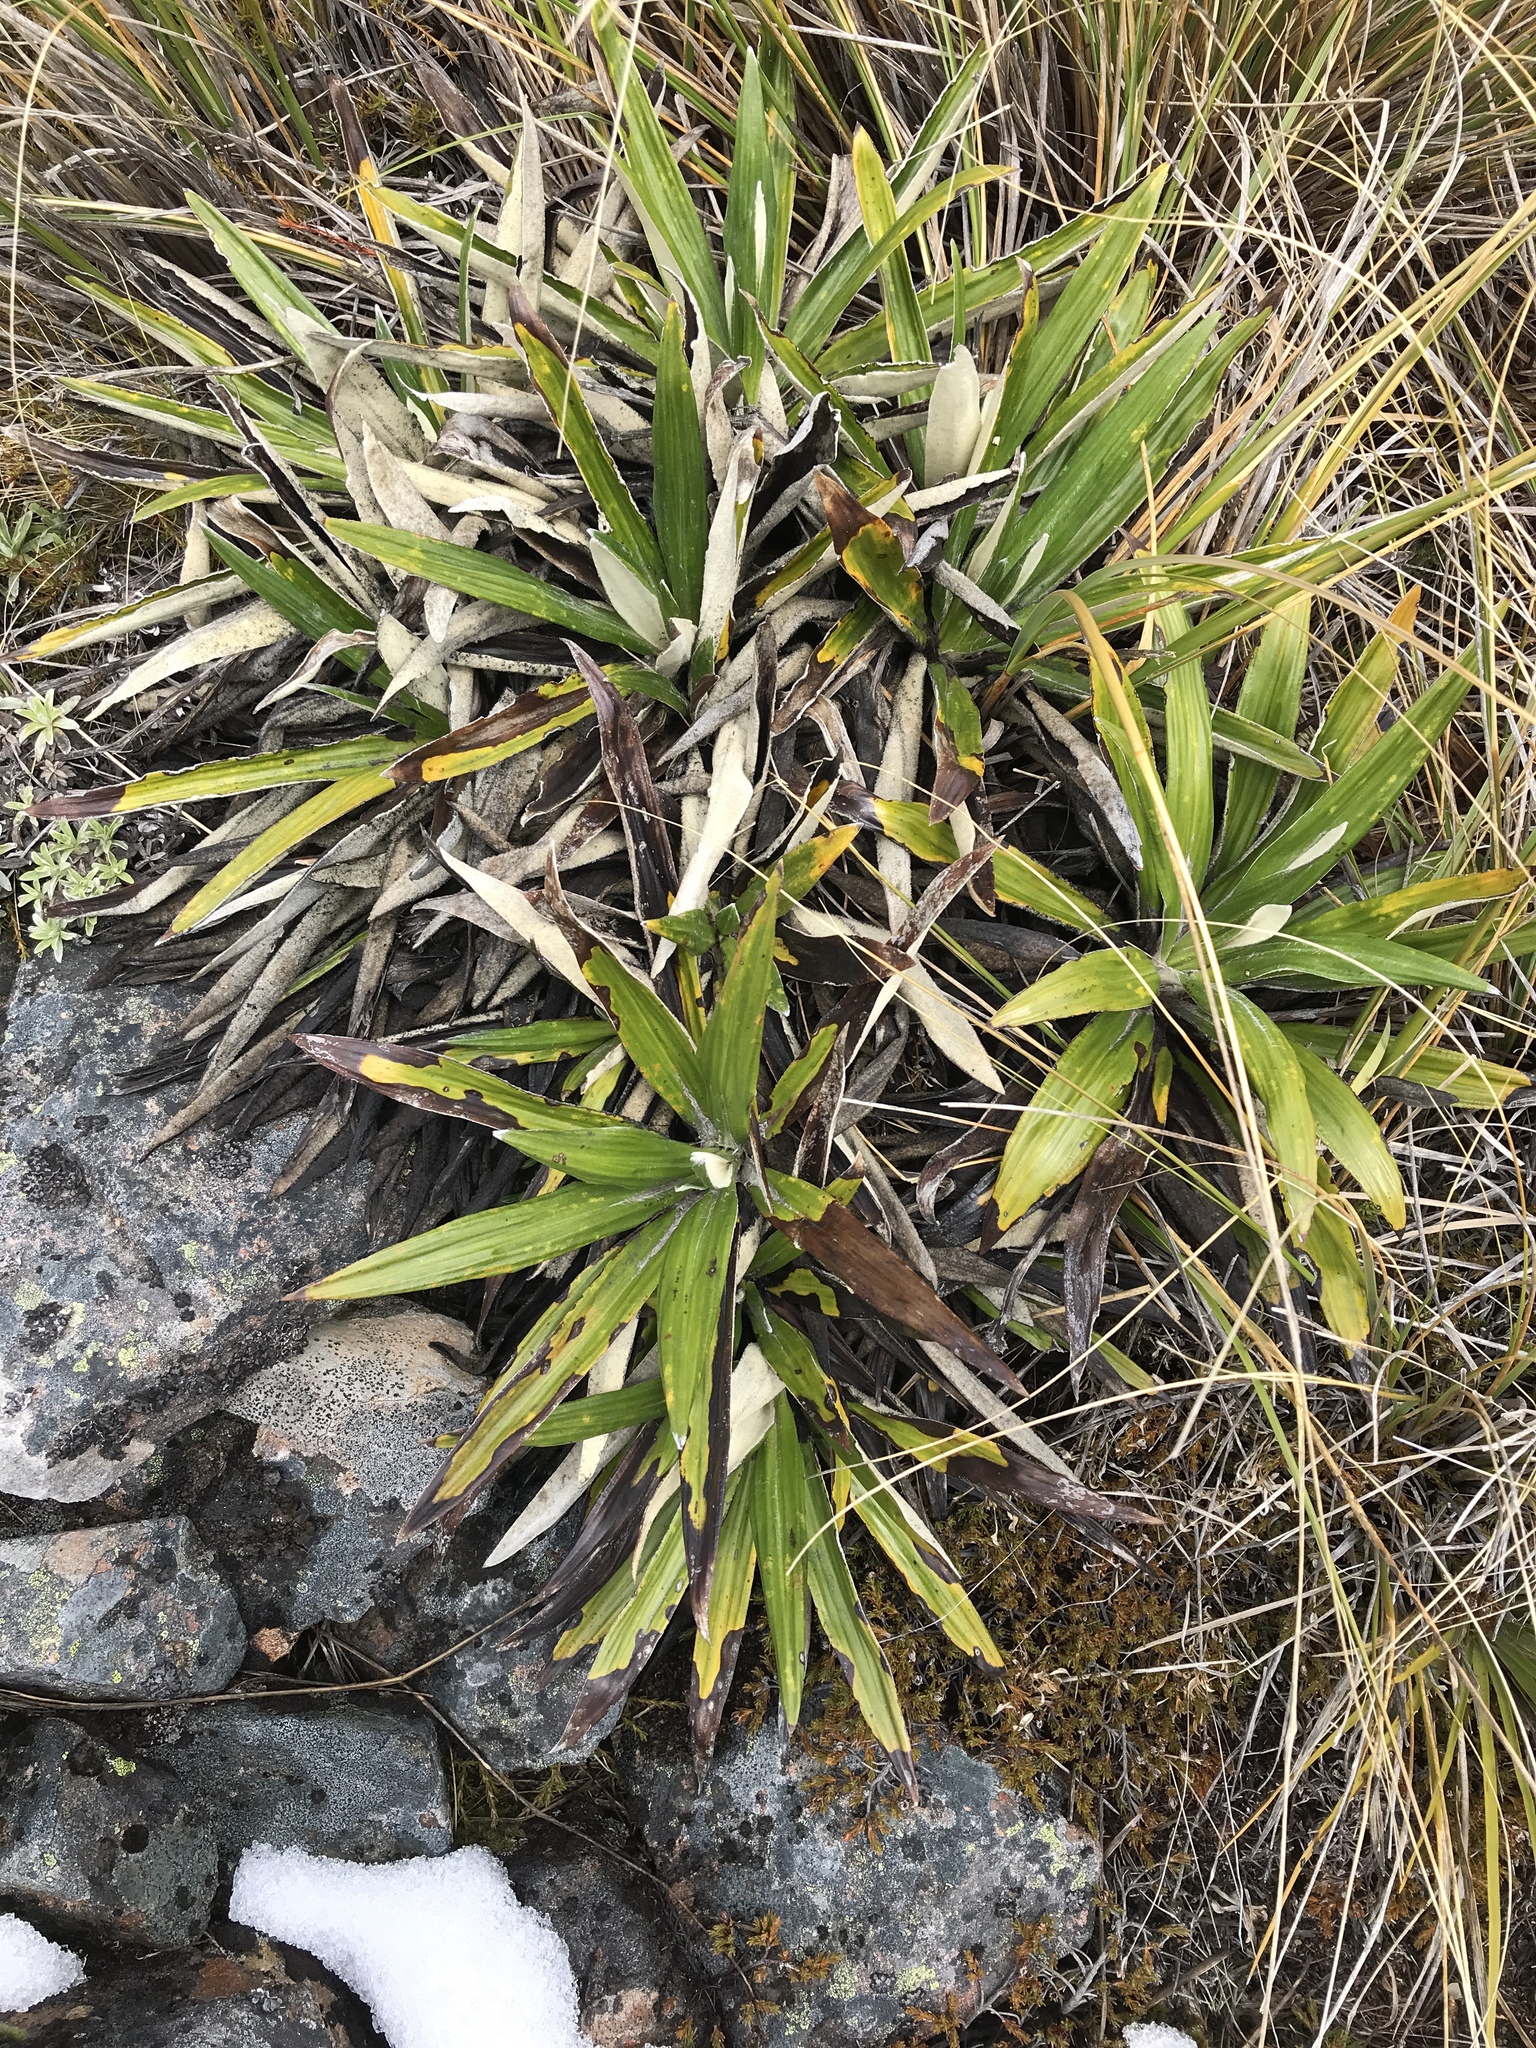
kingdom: Plantae
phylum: Tracheophyta
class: Magnoliopsida
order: Asterales
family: Asteraceae
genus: Celmisia
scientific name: Celmisia spectabilis
